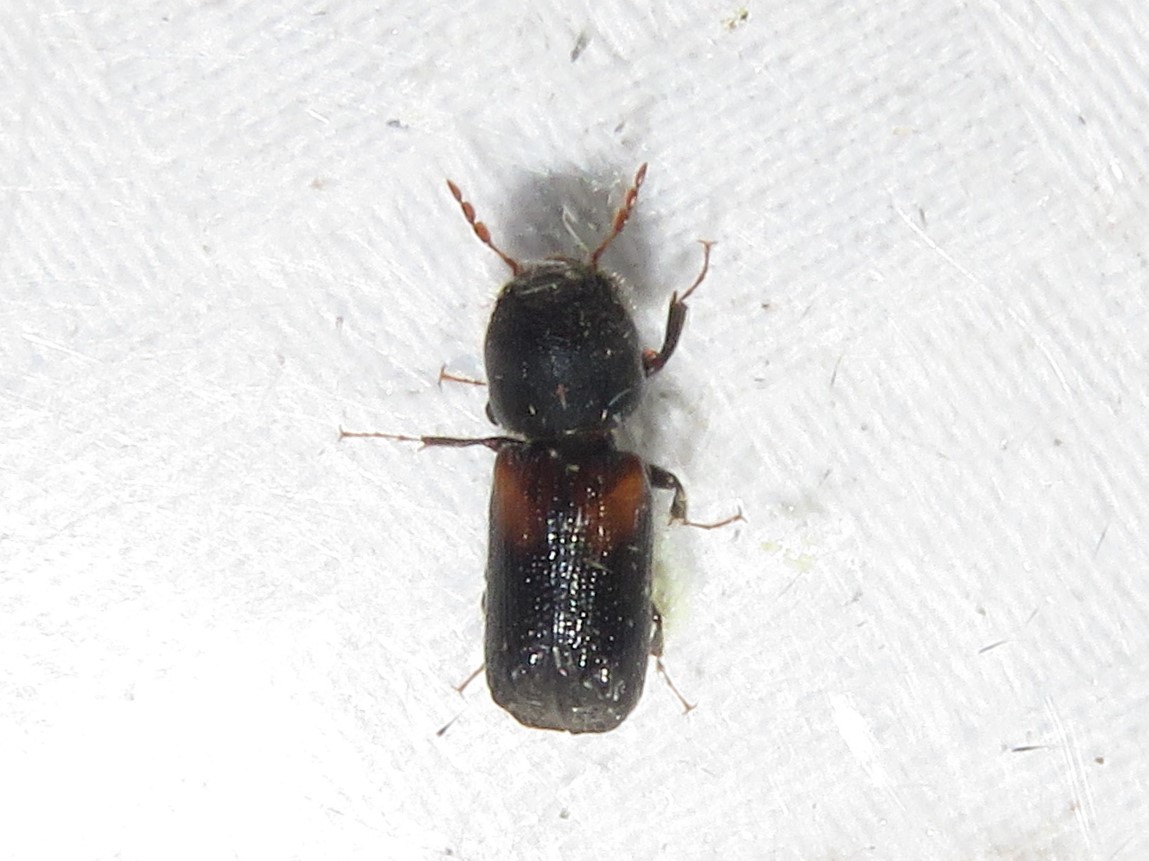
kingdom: Animalia
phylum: Arthropoda
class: Insecta
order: Coleoptera
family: Bostrichidae
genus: Xylobiops
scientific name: Xylobiops basilaris
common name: Red-shouldered bostrichid
